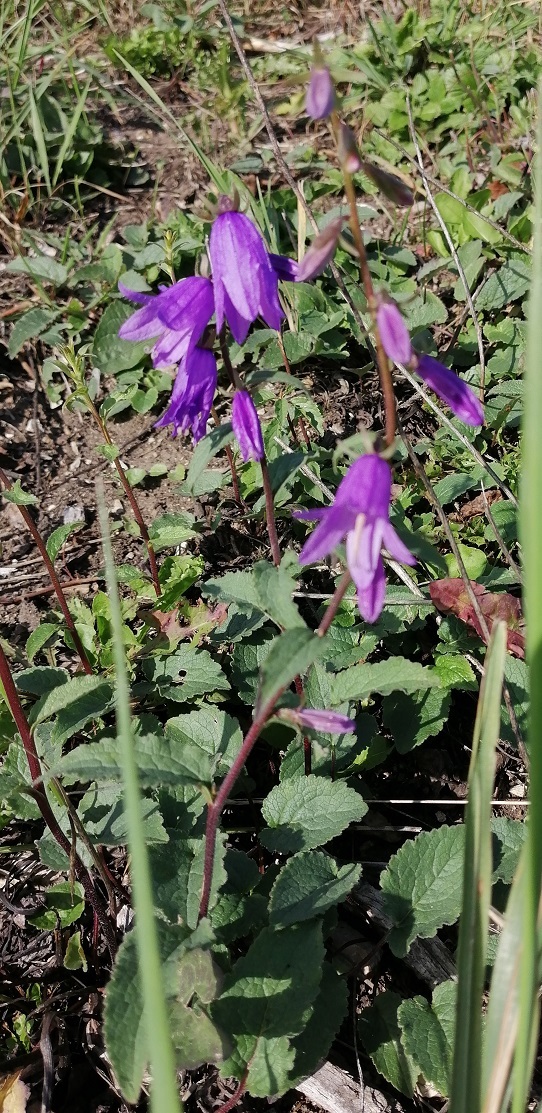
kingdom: Plantae
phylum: Tracheophyta
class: Magnoliopsida
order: Asterales
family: Campanulaceae
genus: Campanula
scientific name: Campanula rapunculoides
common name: Creeping bellflower
